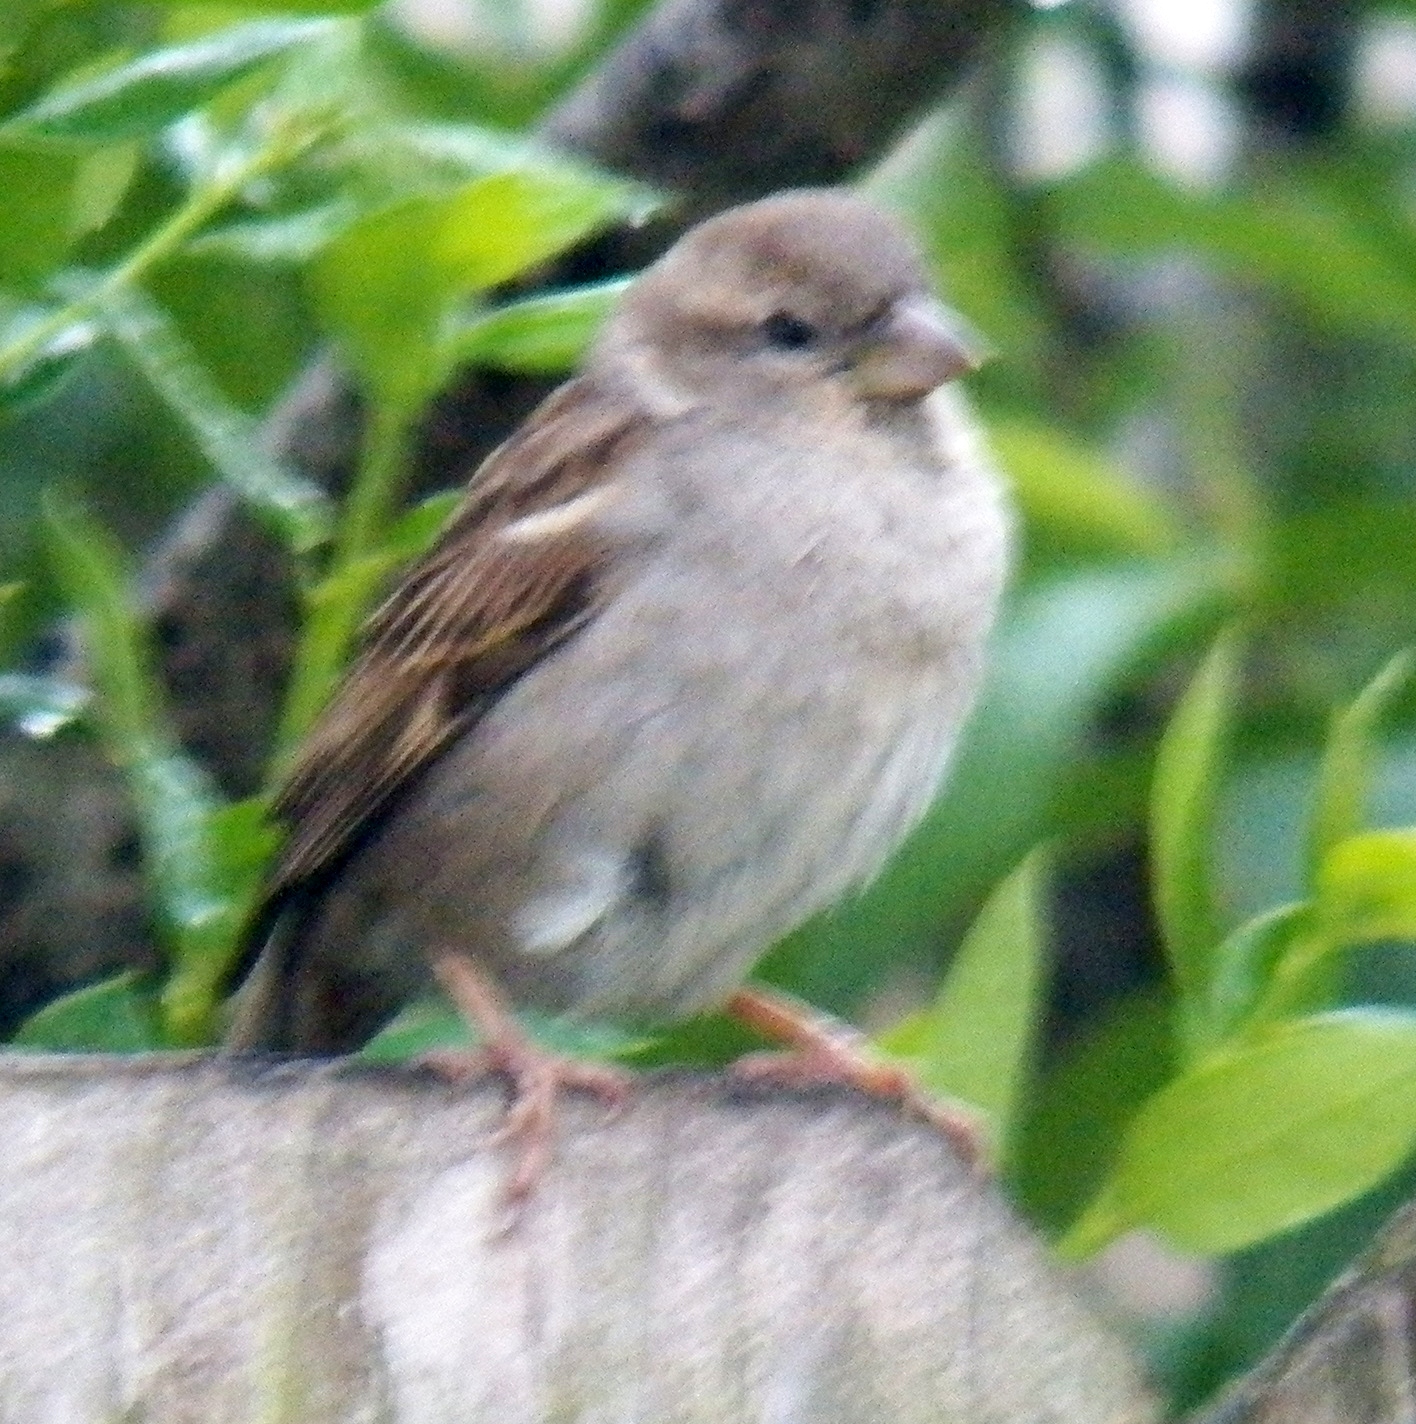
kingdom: Animalia
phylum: Chordata
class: Aves
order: Passeriformes
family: Passeridae
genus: Passer
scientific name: Passer domesticus
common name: House sparrow
